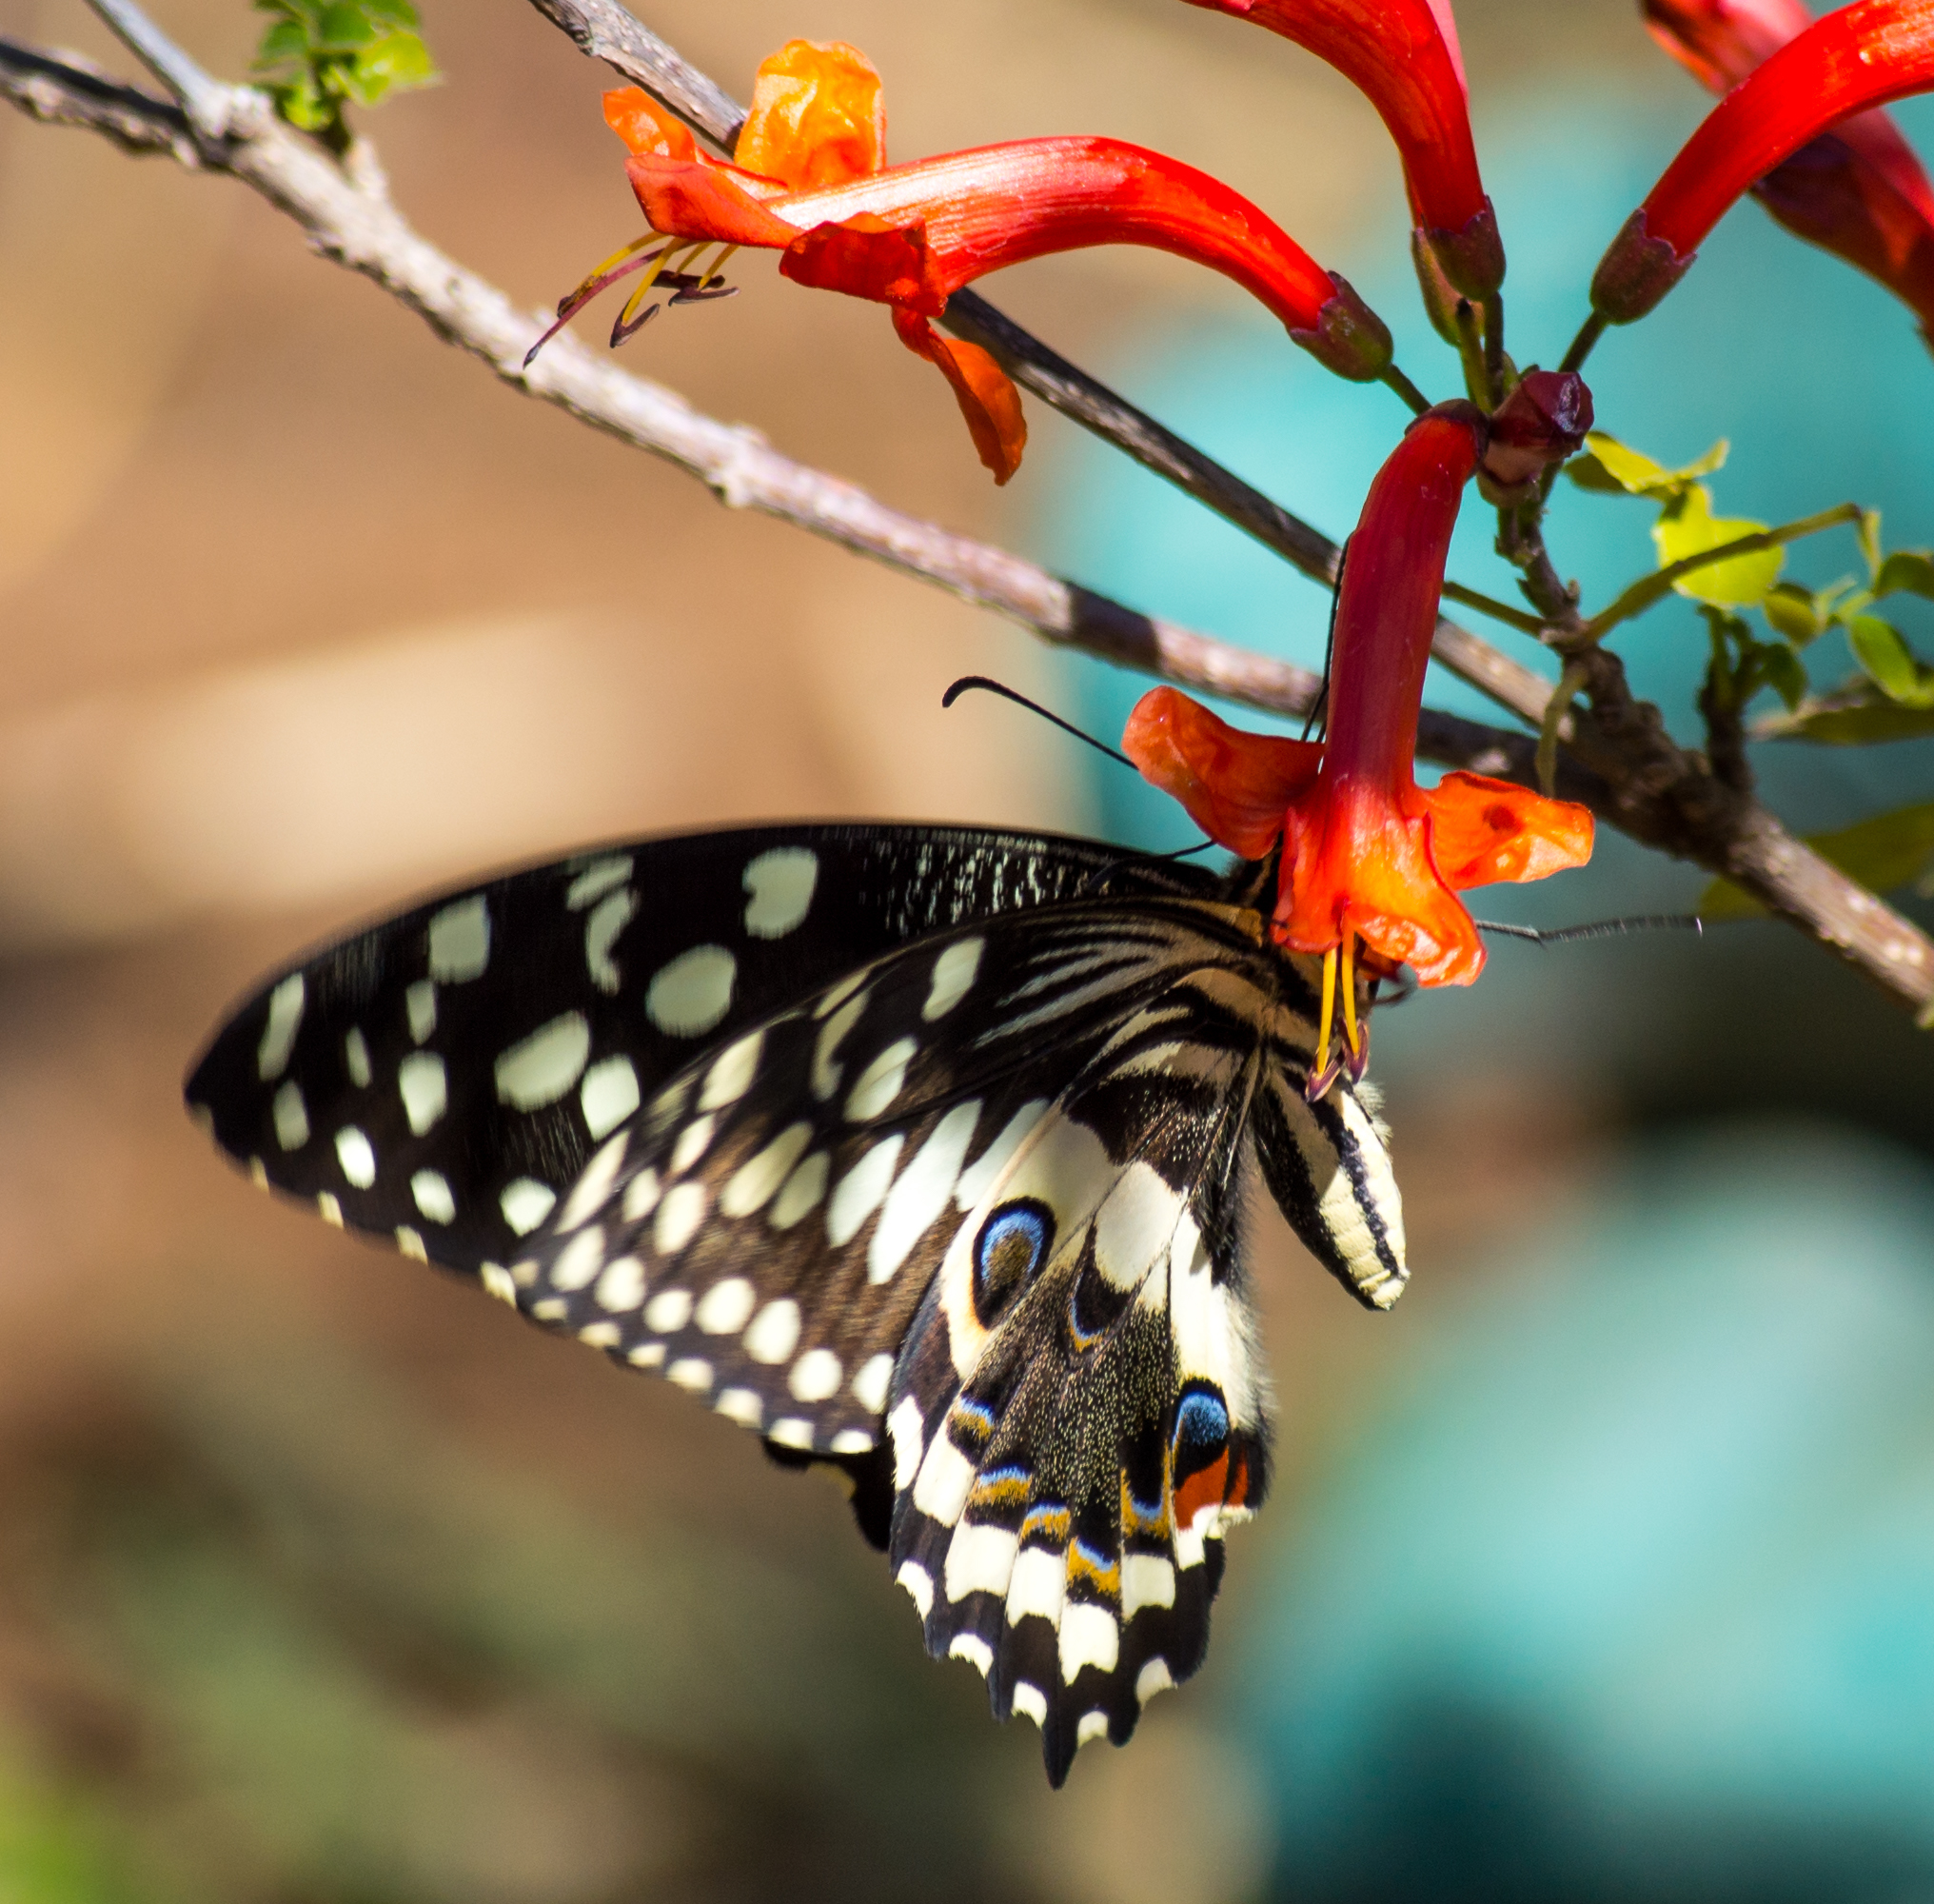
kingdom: Animalia
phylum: Arthropoda
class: Insecta
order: Lepidoptera
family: Papilionidae
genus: Papilio
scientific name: Papilio demodocus
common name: Christmas butterfly
